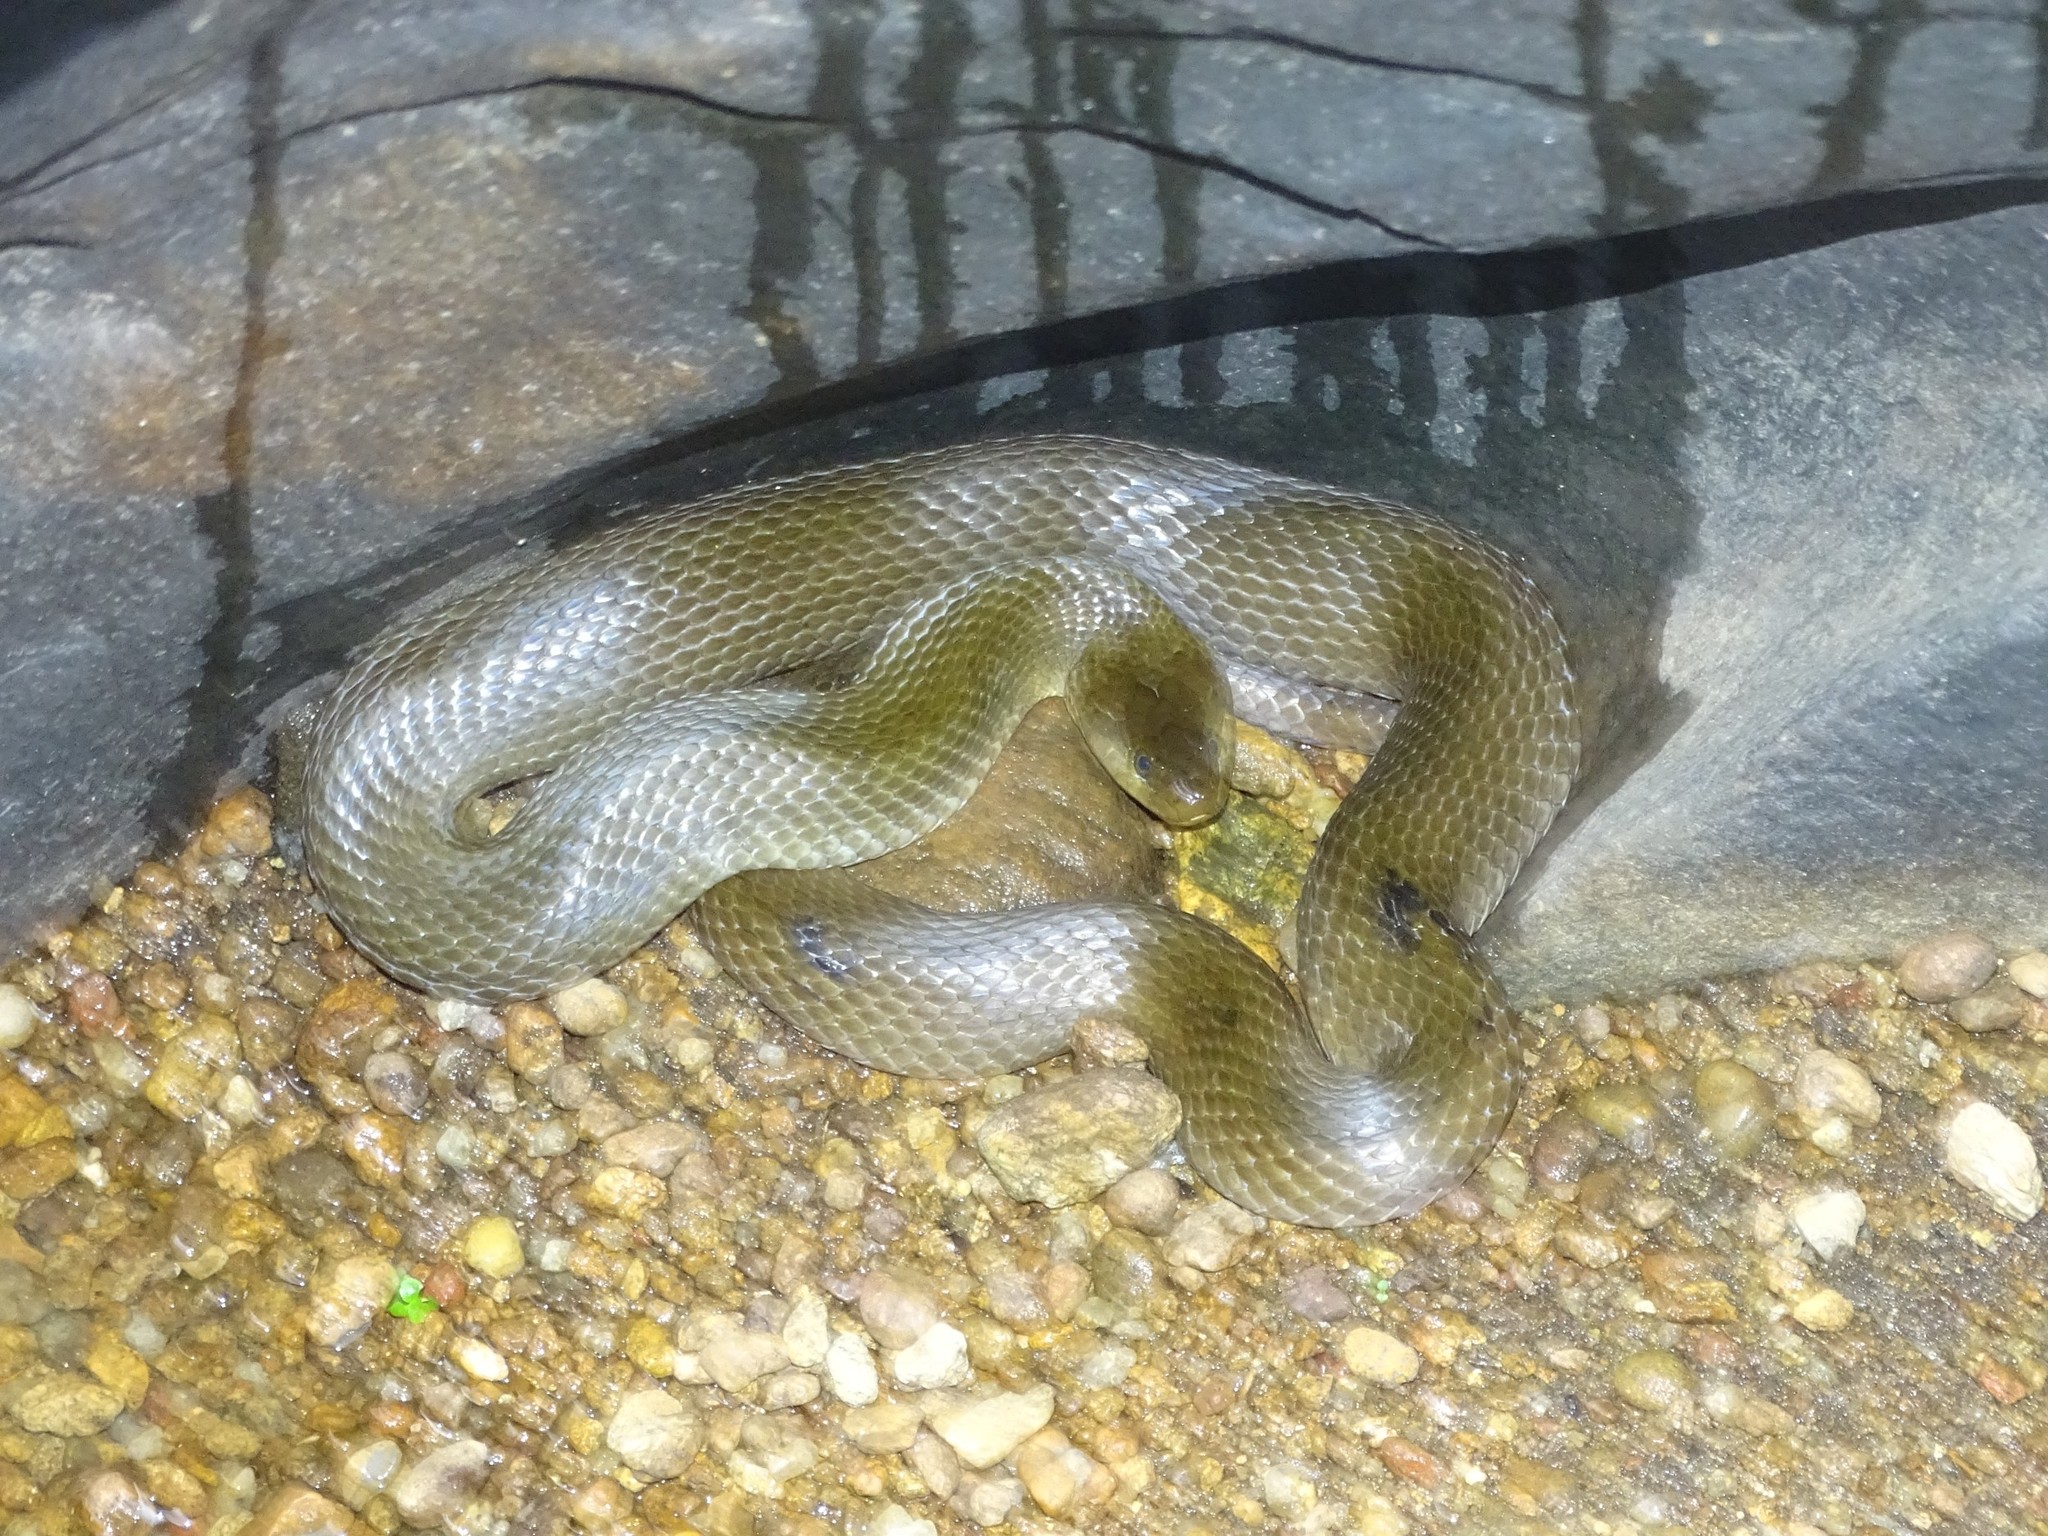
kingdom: Animalia
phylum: Chordata
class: Squamata
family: Colubridae
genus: Fowlea
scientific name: Fowlea piscator
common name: Asiatic water snake
